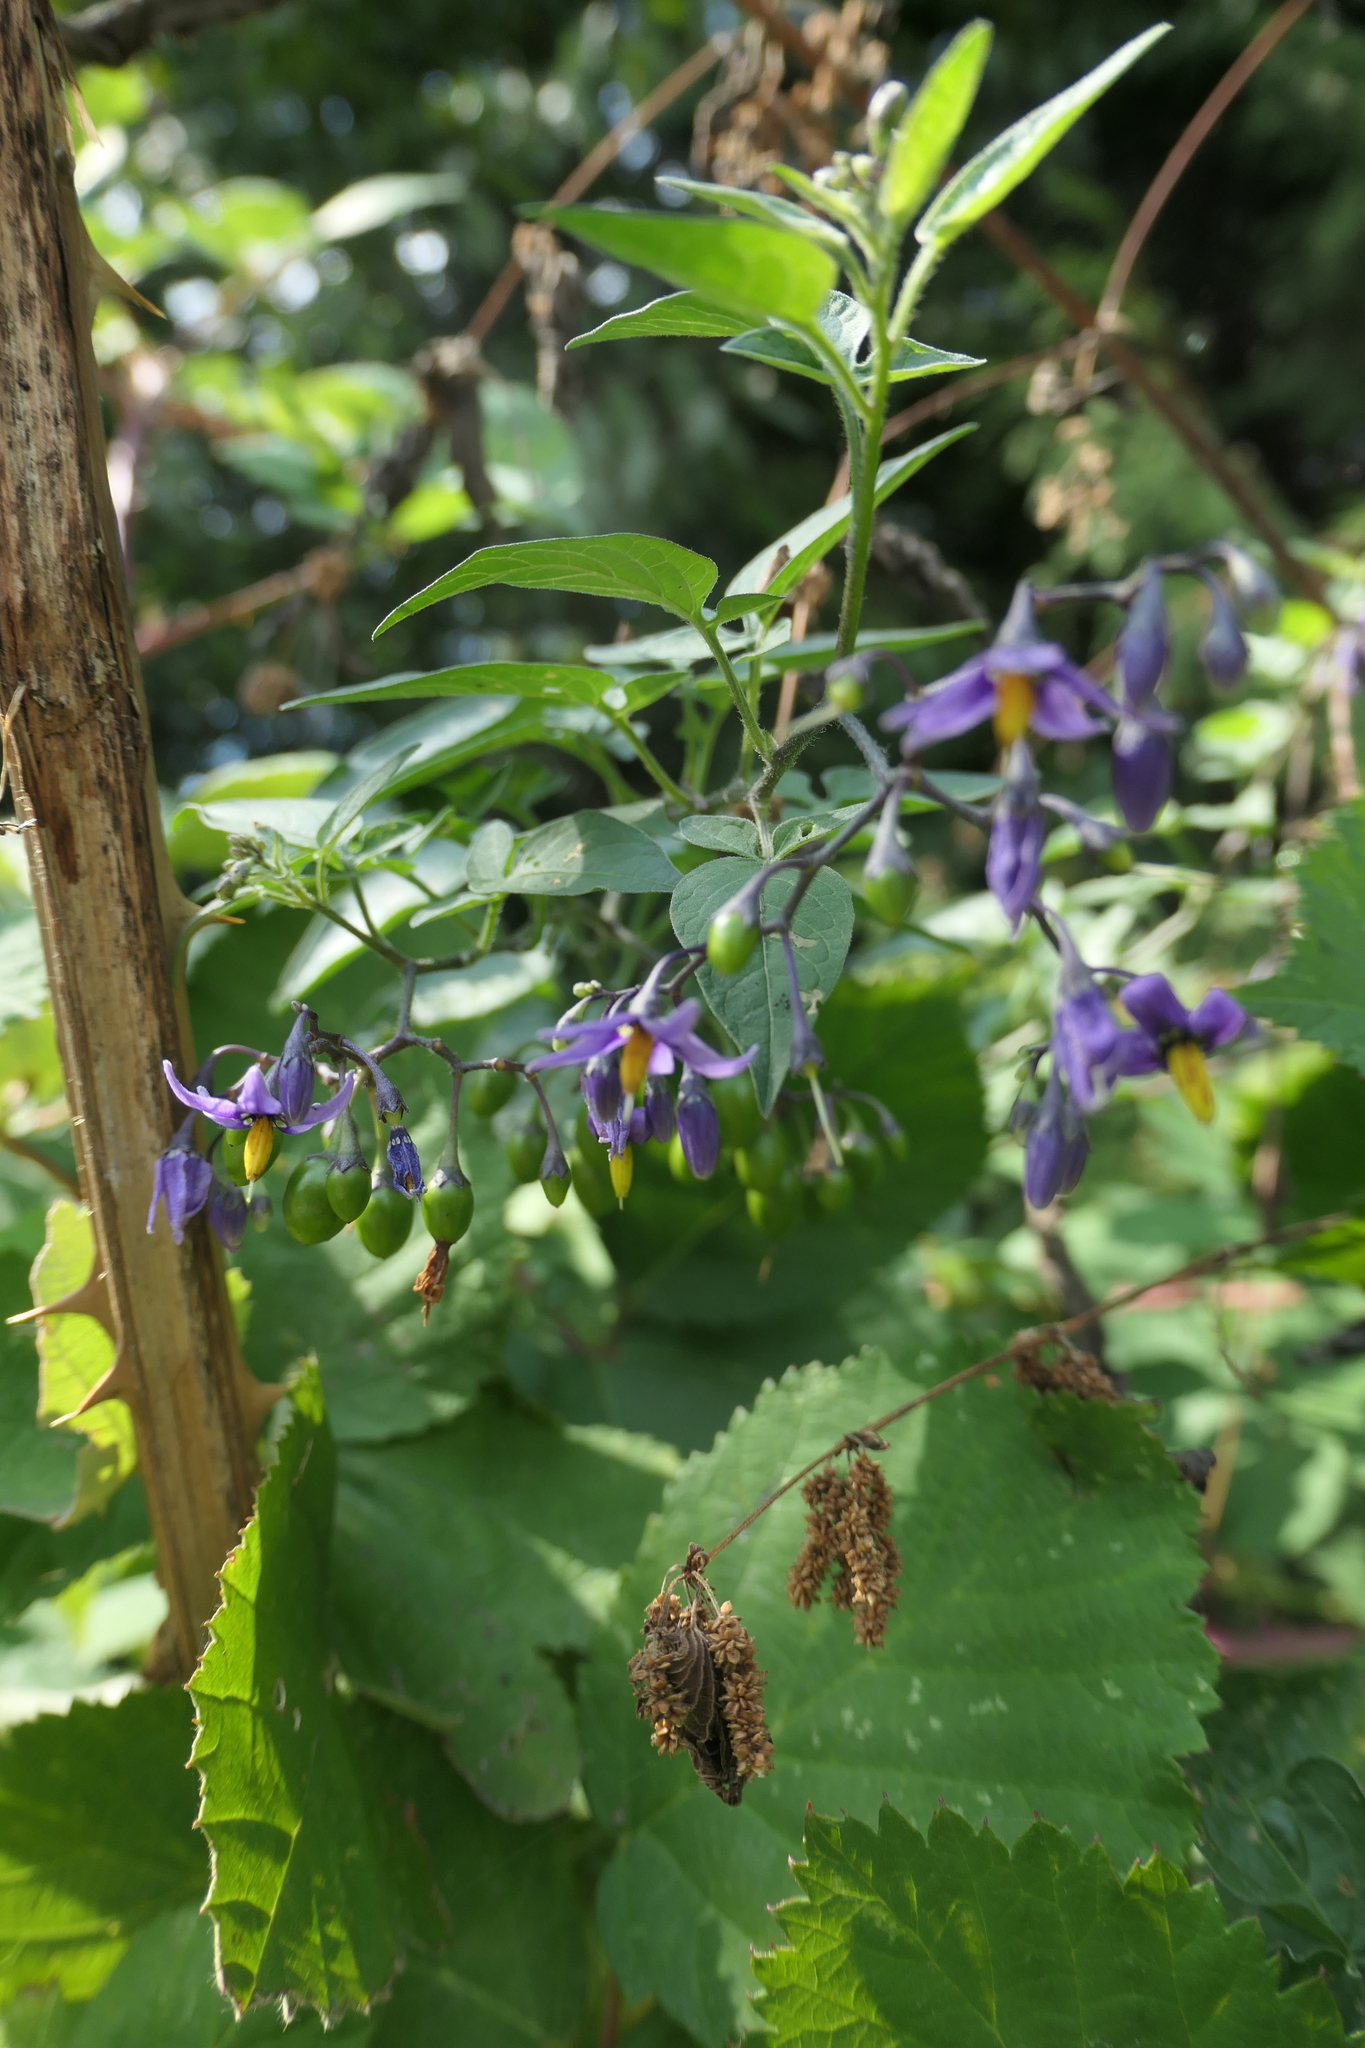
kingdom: Plantae
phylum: Tracheophyta
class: Magnoliopsida
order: Solanales
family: Solanaceae
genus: Solanum
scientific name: Solanum dulcamara
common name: Climbing nightshade
